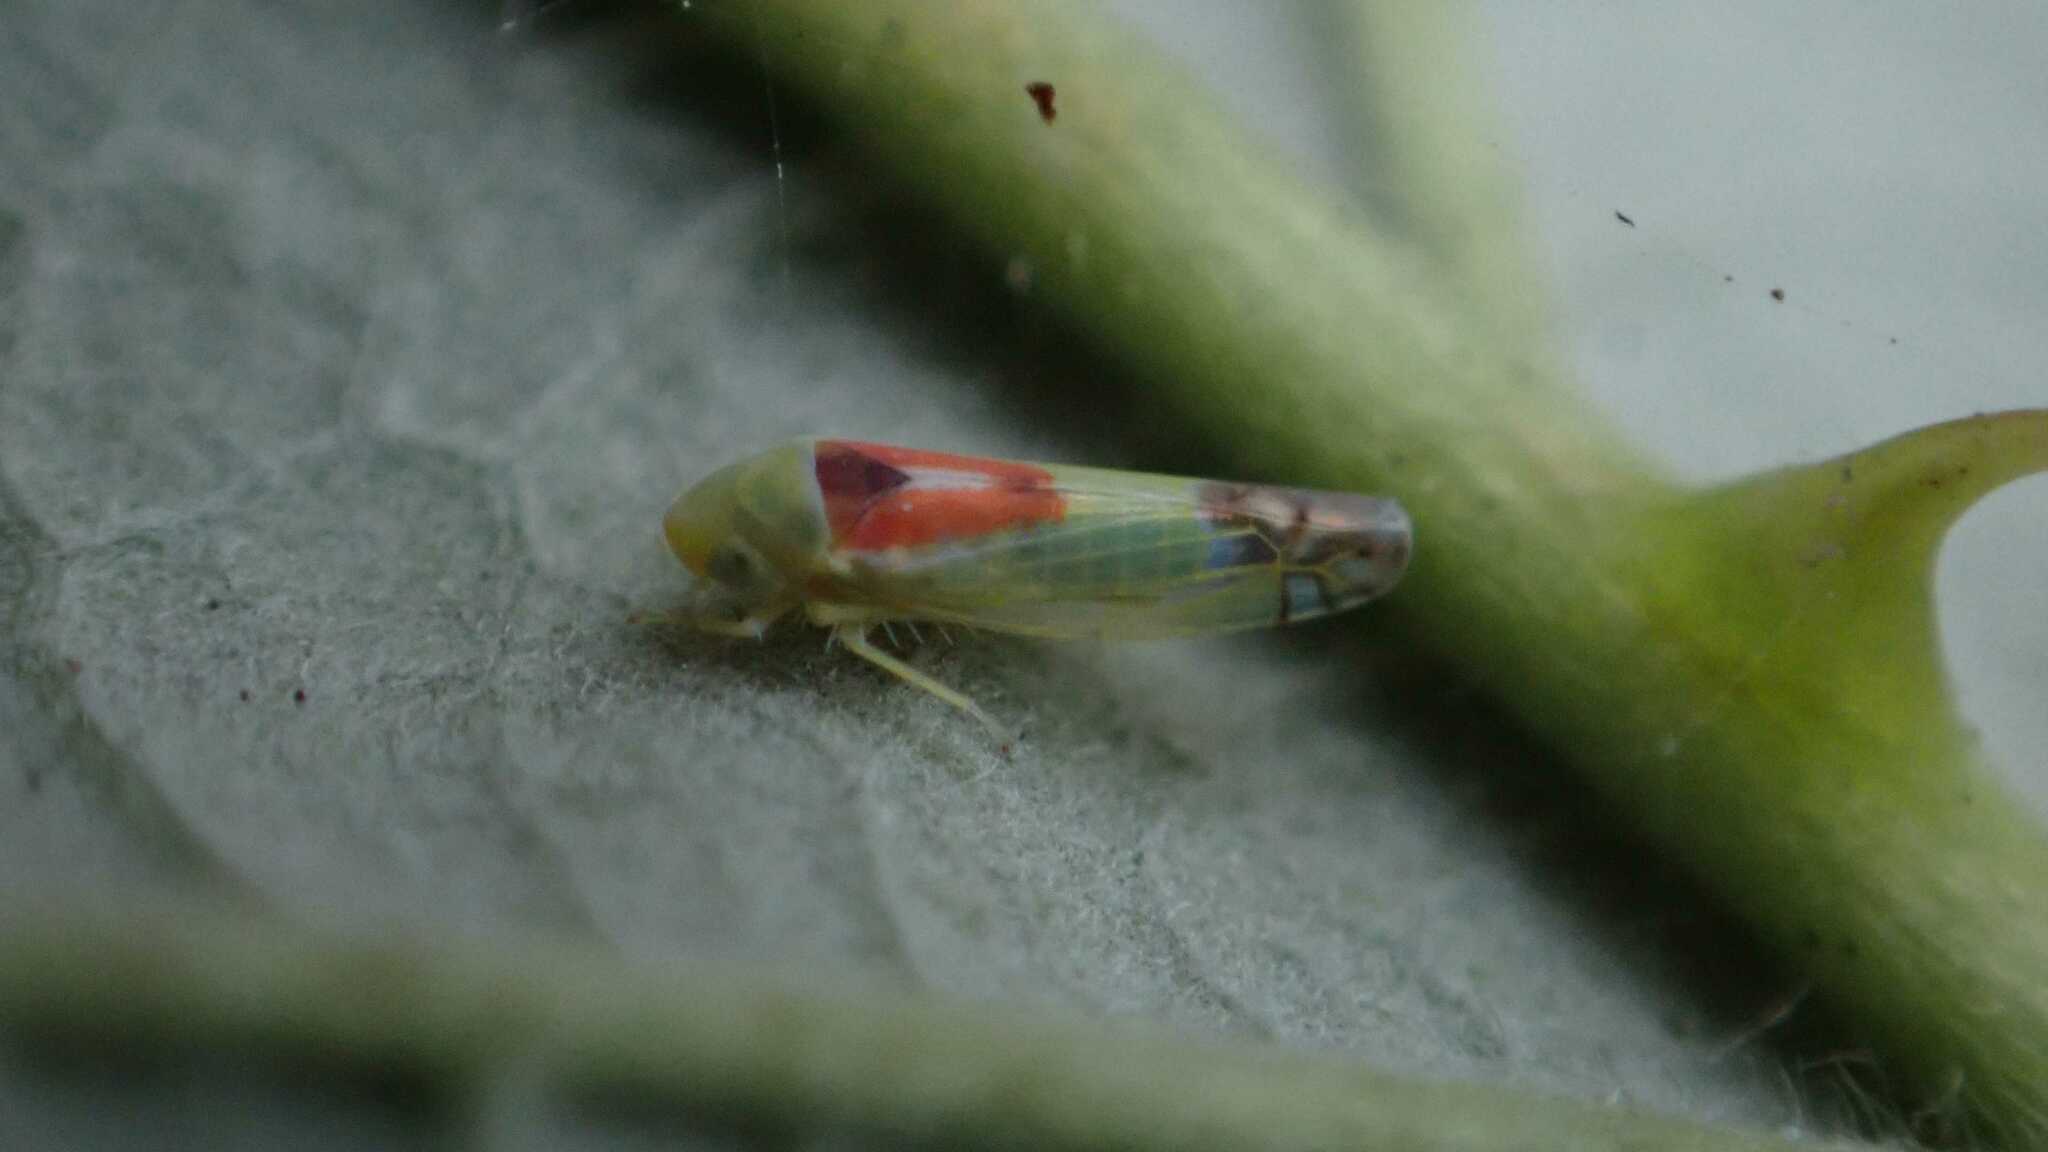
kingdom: Animalia
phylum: Arthropoda
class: Insecta
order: Hemiptera
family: Cicadellidae
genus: Zyginella
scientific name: Zyginella pulchra
